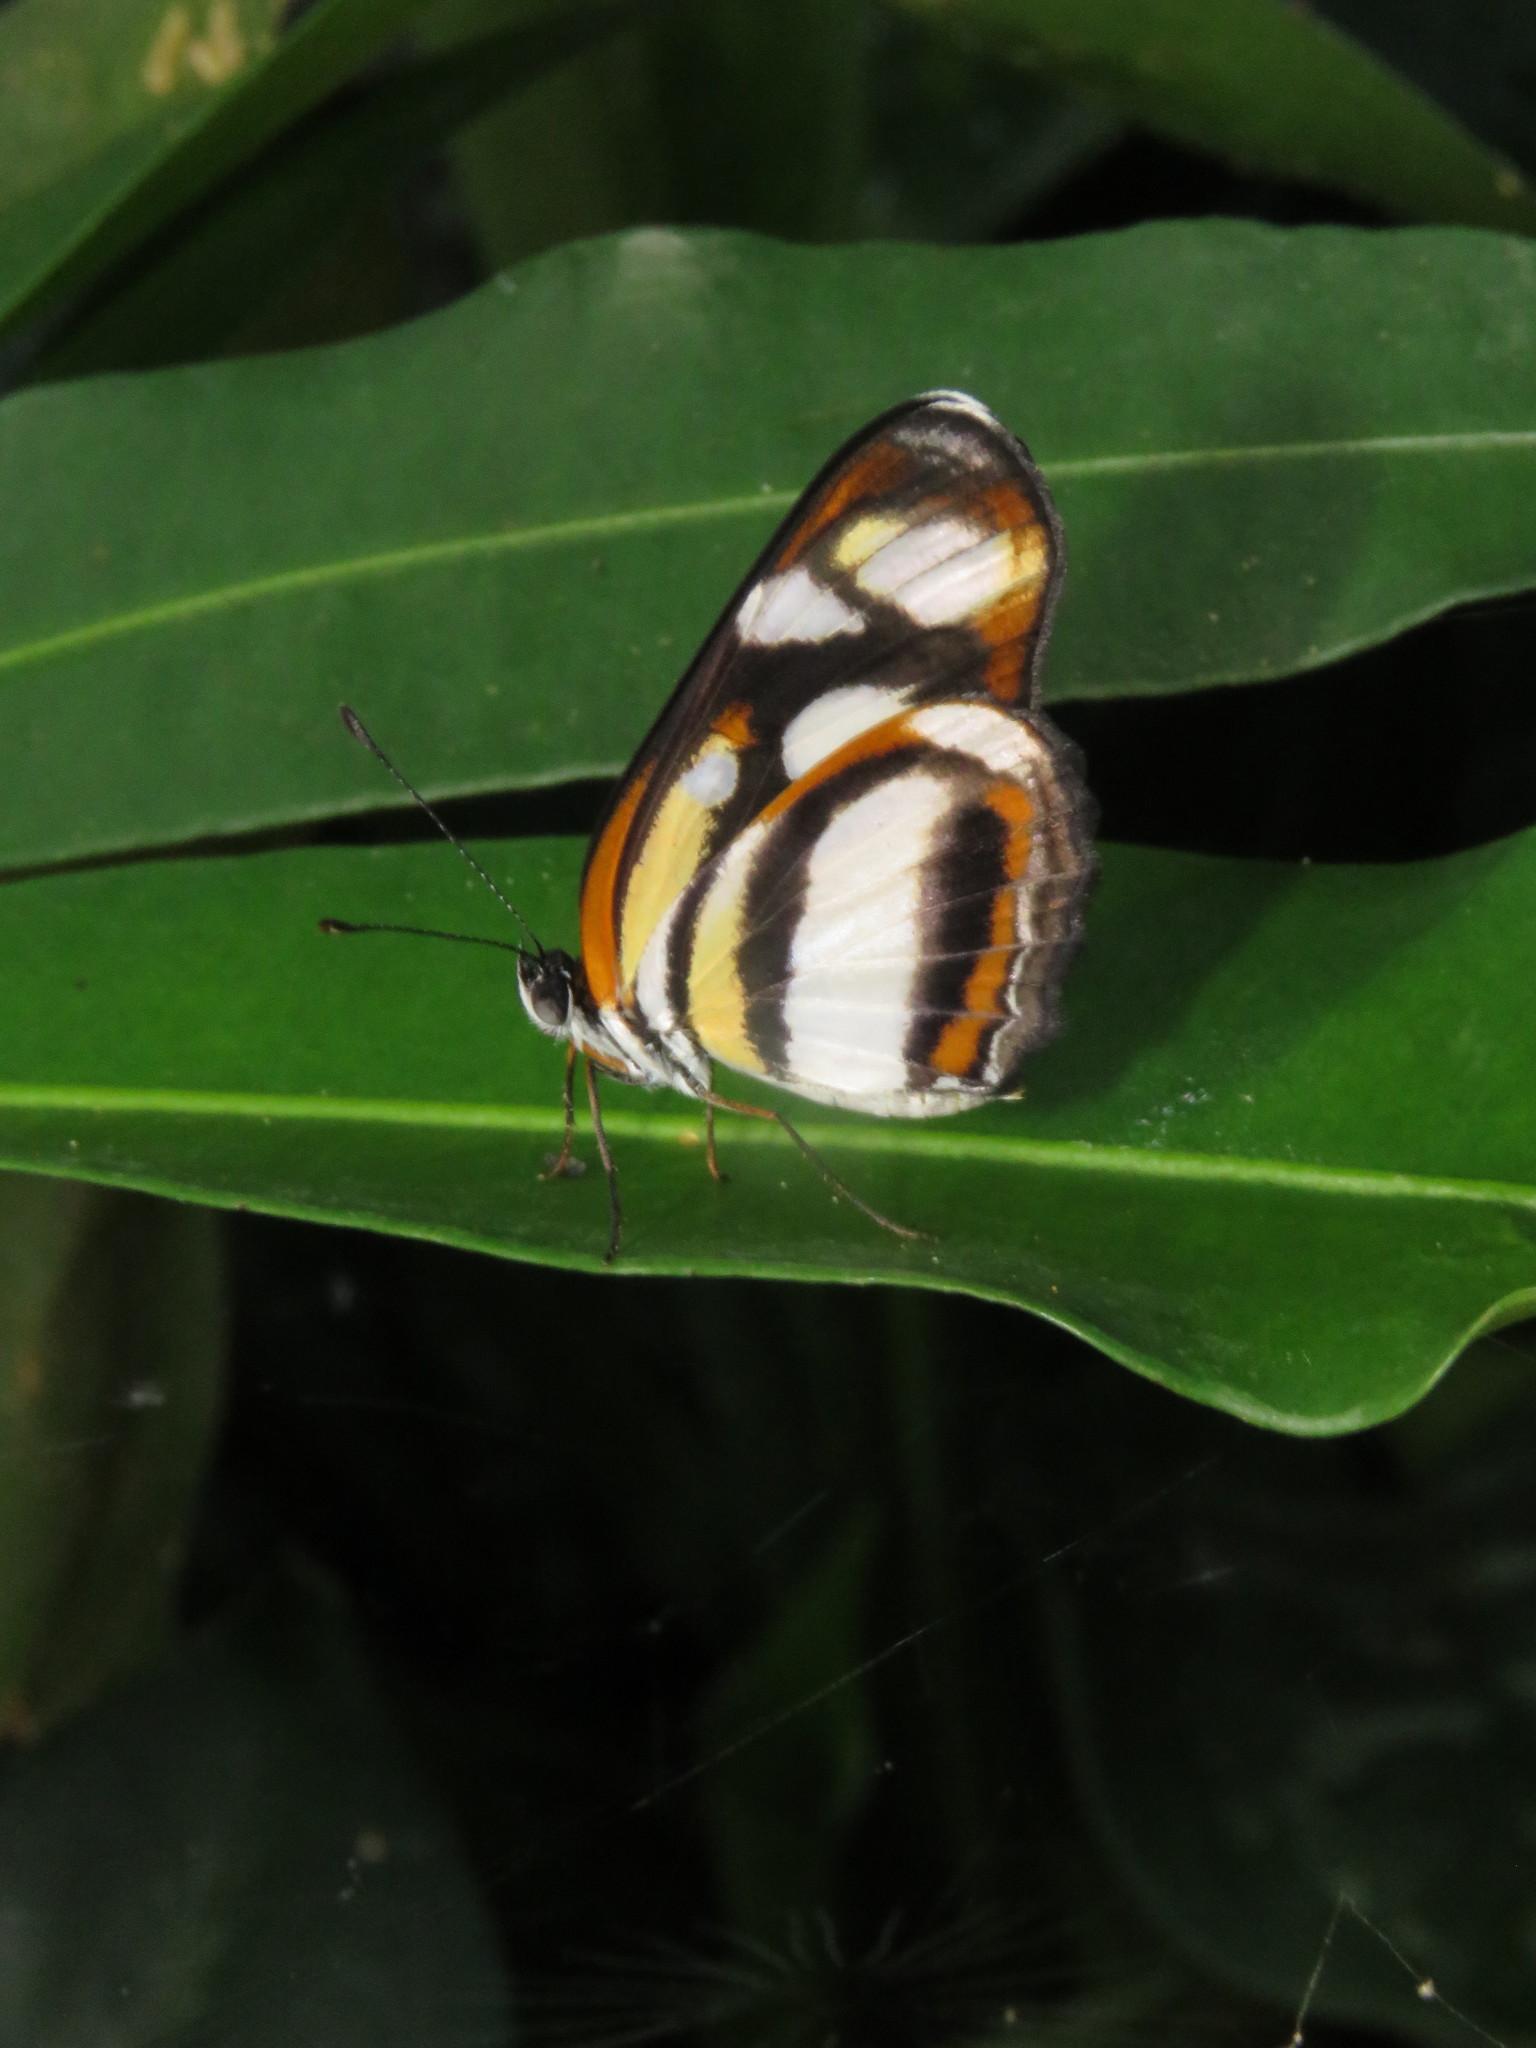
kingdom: Animalia
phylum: Arthropoda
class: Insecta
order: Lepidoptera
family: Nymphalidae
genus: Eresia
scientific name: Eresia clio
